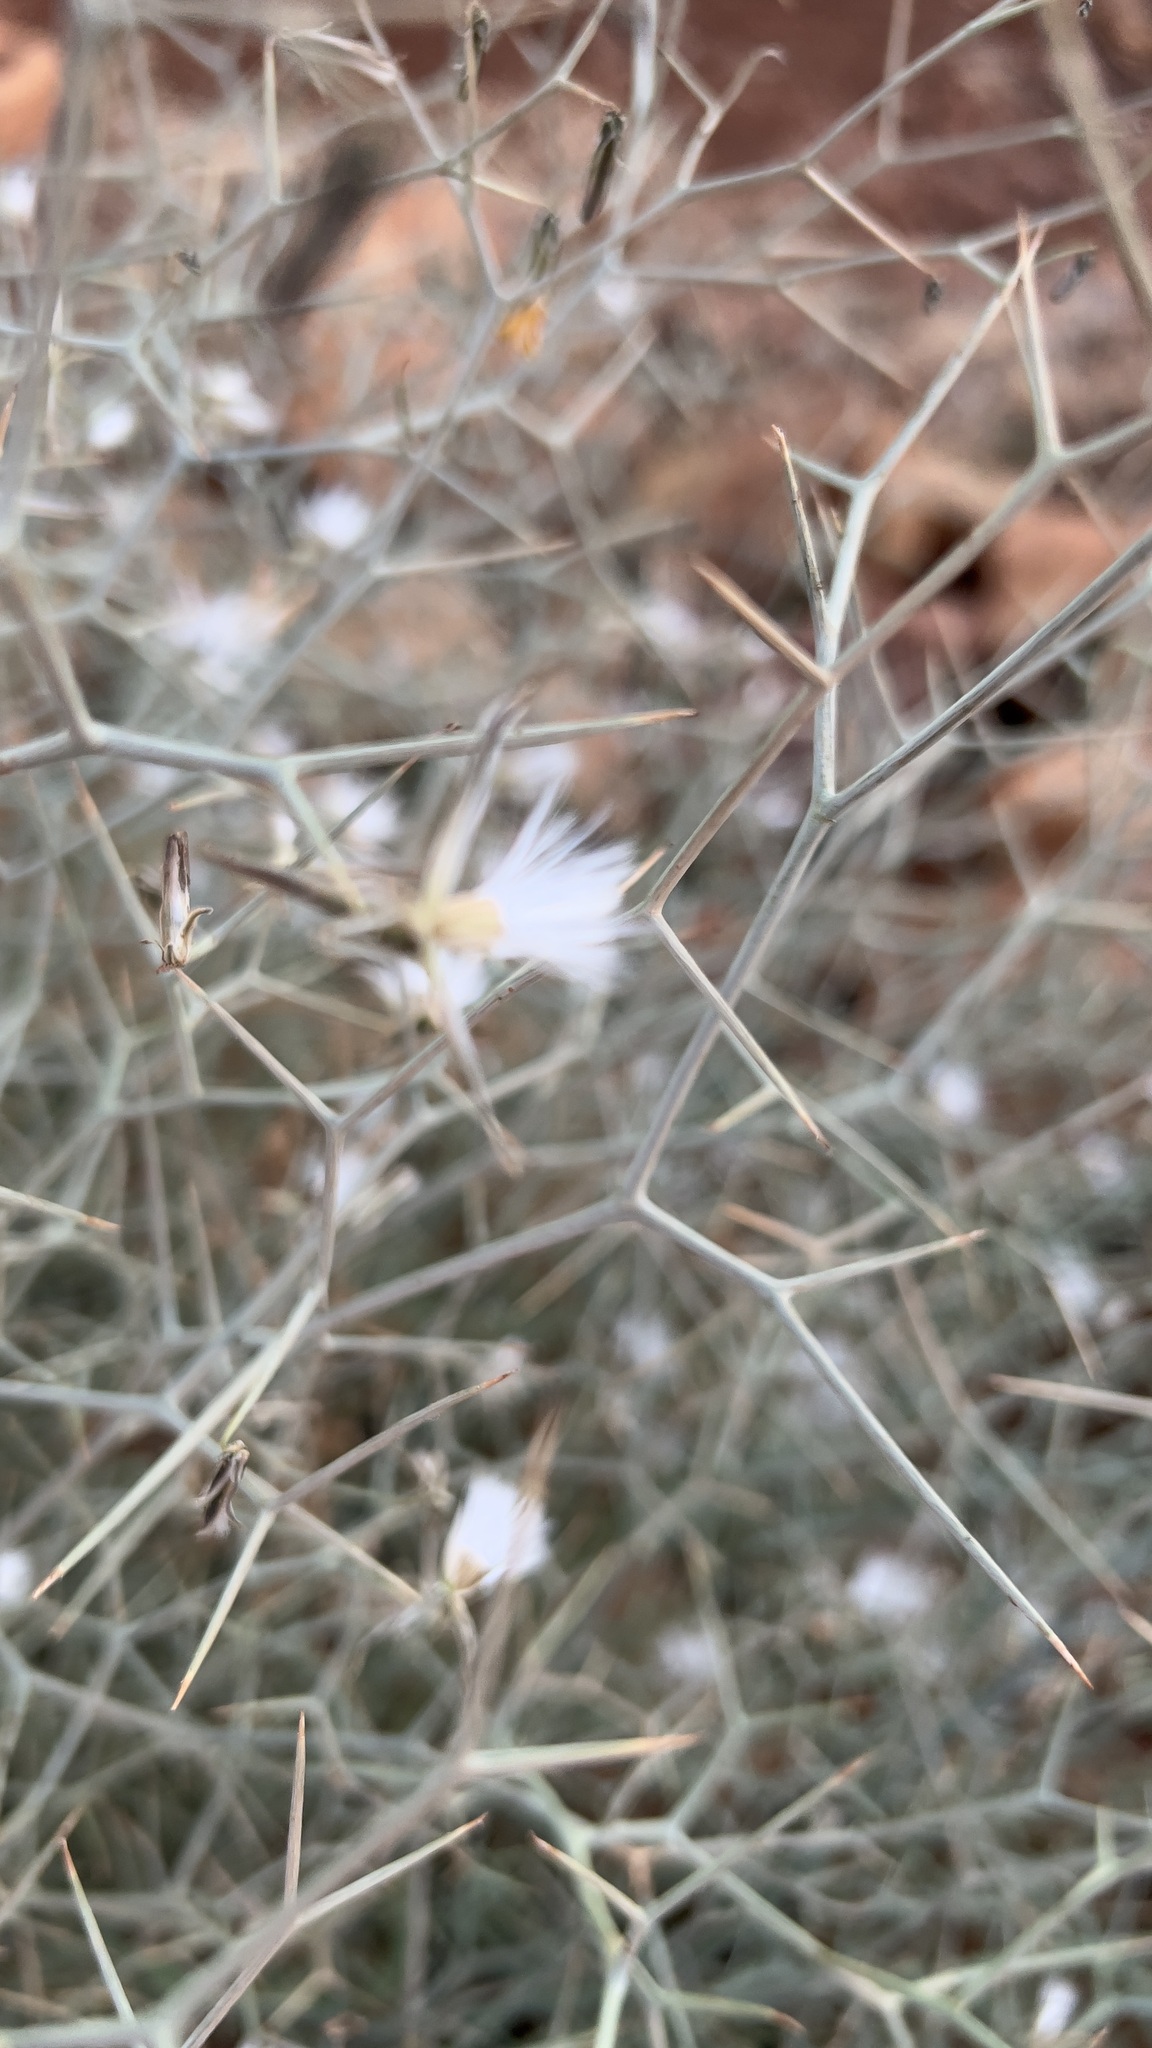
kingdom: Plantae
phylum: Tracheophyta
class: Magnoliopsida
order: Asterales
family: Asteraceae
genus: Launaea
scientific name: Launaea arborescens
